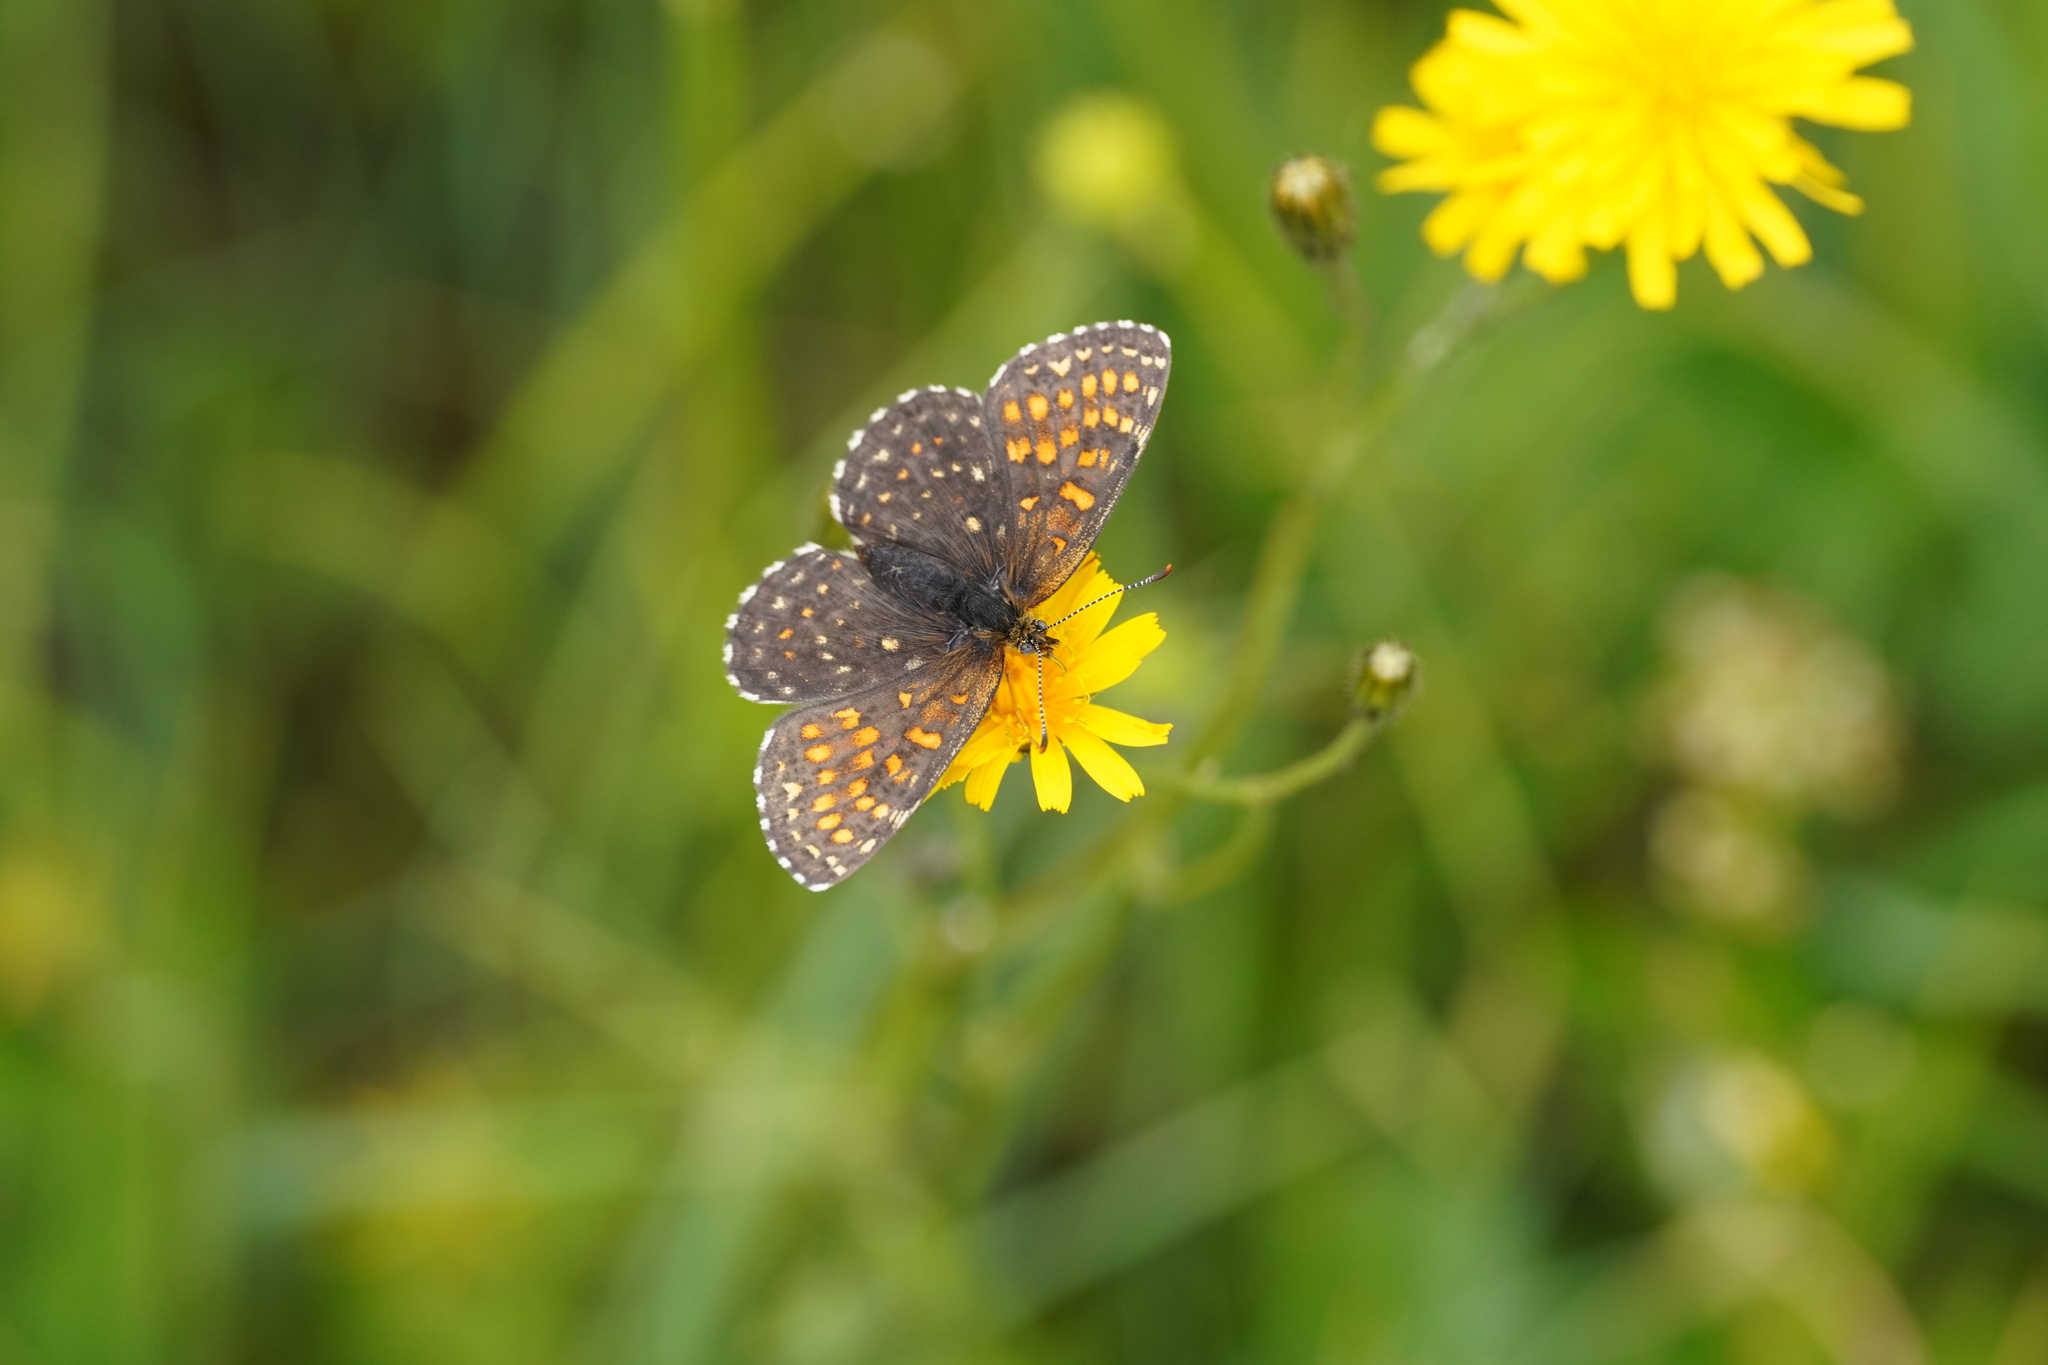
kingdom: Animalia
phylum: Arthropoda
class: Insecta
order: Lepidoptera
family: Nymphalidae
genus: Melitaea
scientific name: Melitaea diamina
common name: False heath fritillary
